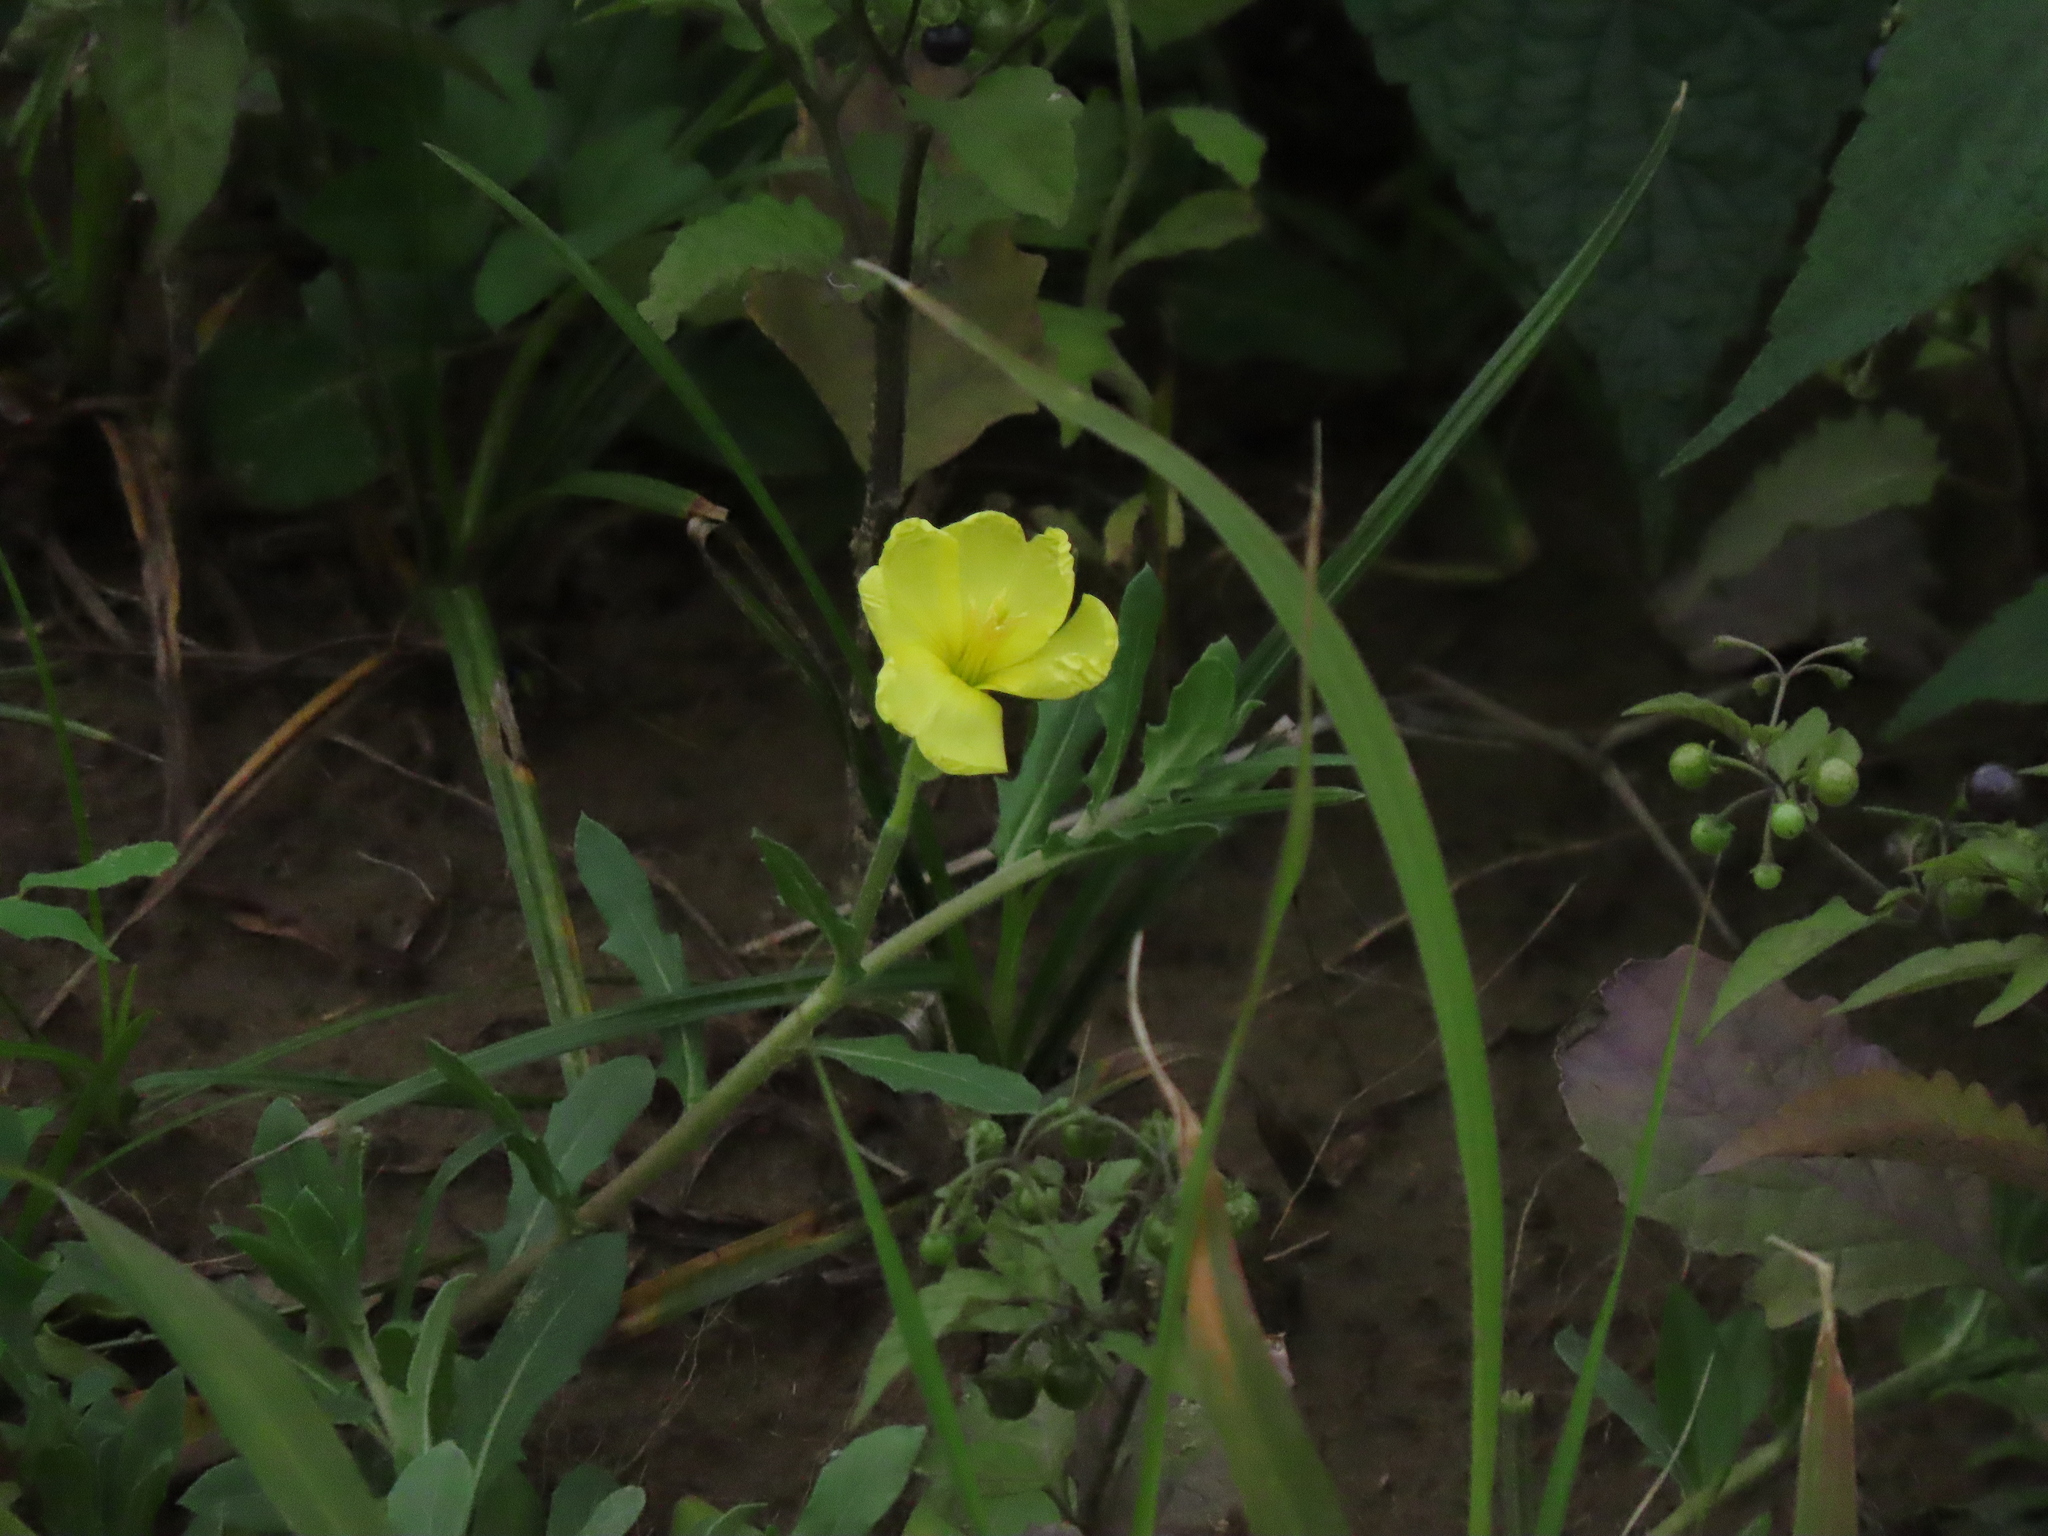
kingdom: Plantae
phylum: Tracheophyta
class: Magnoliopsida
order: Myrtales
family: Onagraceae
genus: Oenothera
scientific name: Oenothera laciniata
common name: Cut-leaved evening-primrose
